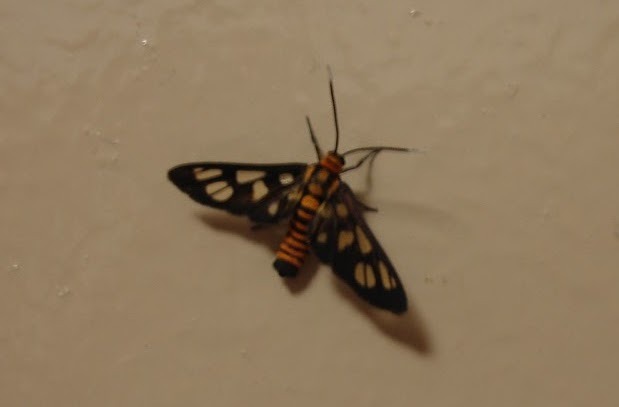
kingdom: Animalia
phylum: Arthropoda
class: Insecta
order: Lepidoptera
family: Erebidae
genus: Amata
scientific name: Amata huebneri
